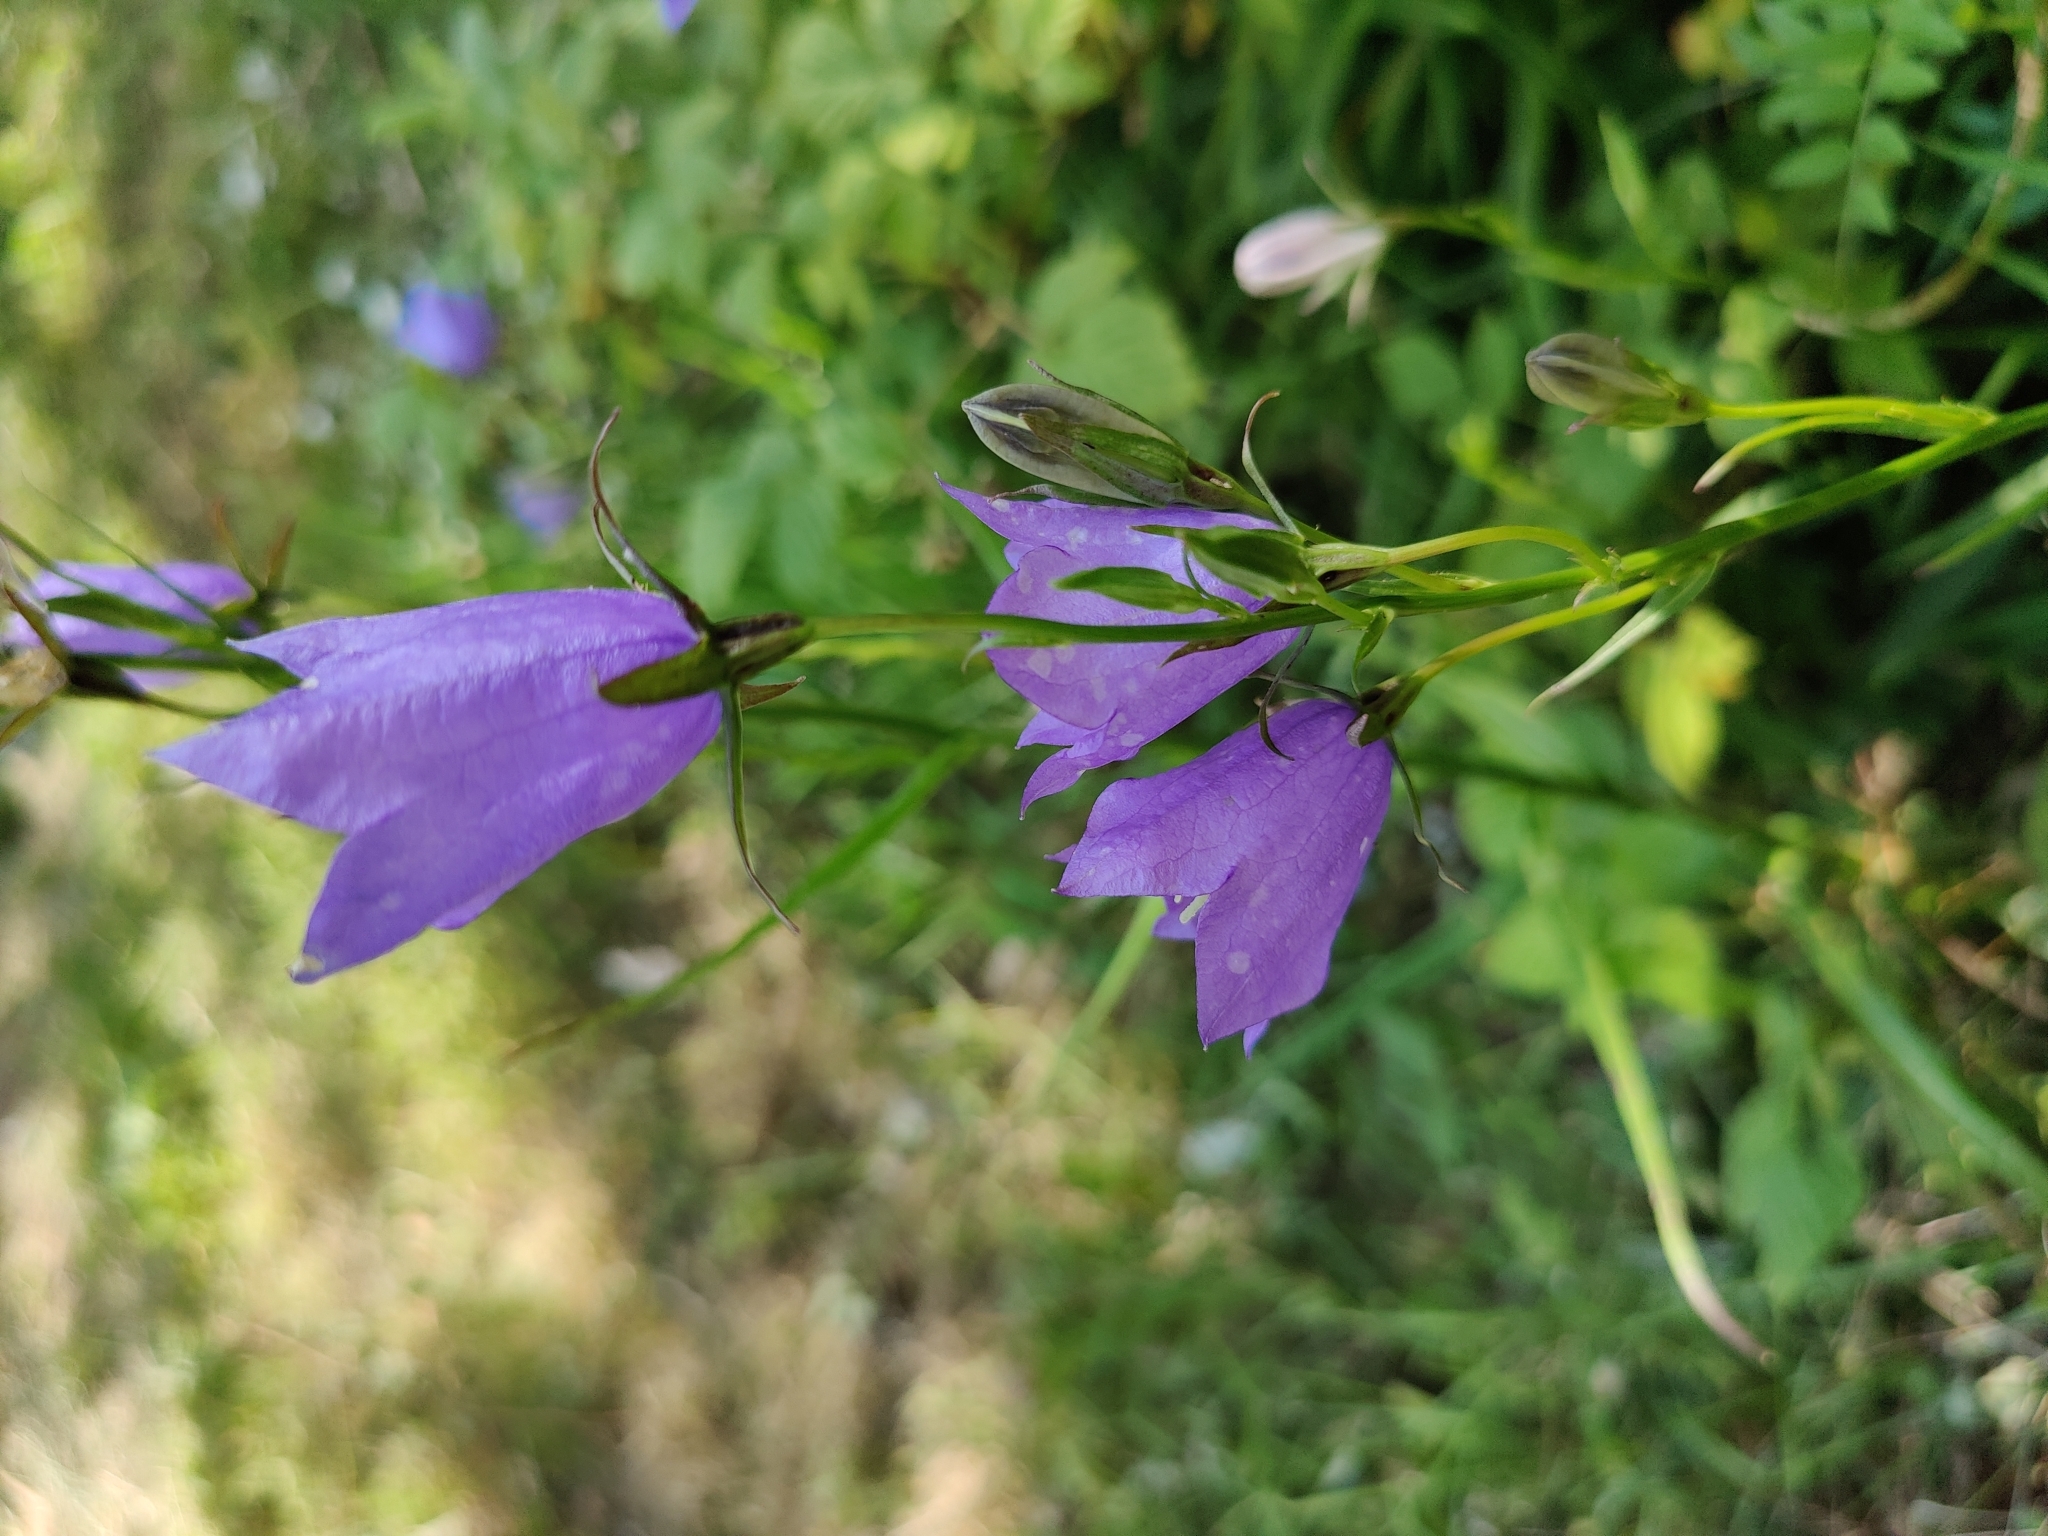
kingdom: Plantae
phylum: Tracheophyta
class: Magnoliopsida
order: Asterales
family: Campanulaceae
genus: Campanula
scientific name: Campanula persicifolia
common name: Peach-leaved bellflower
